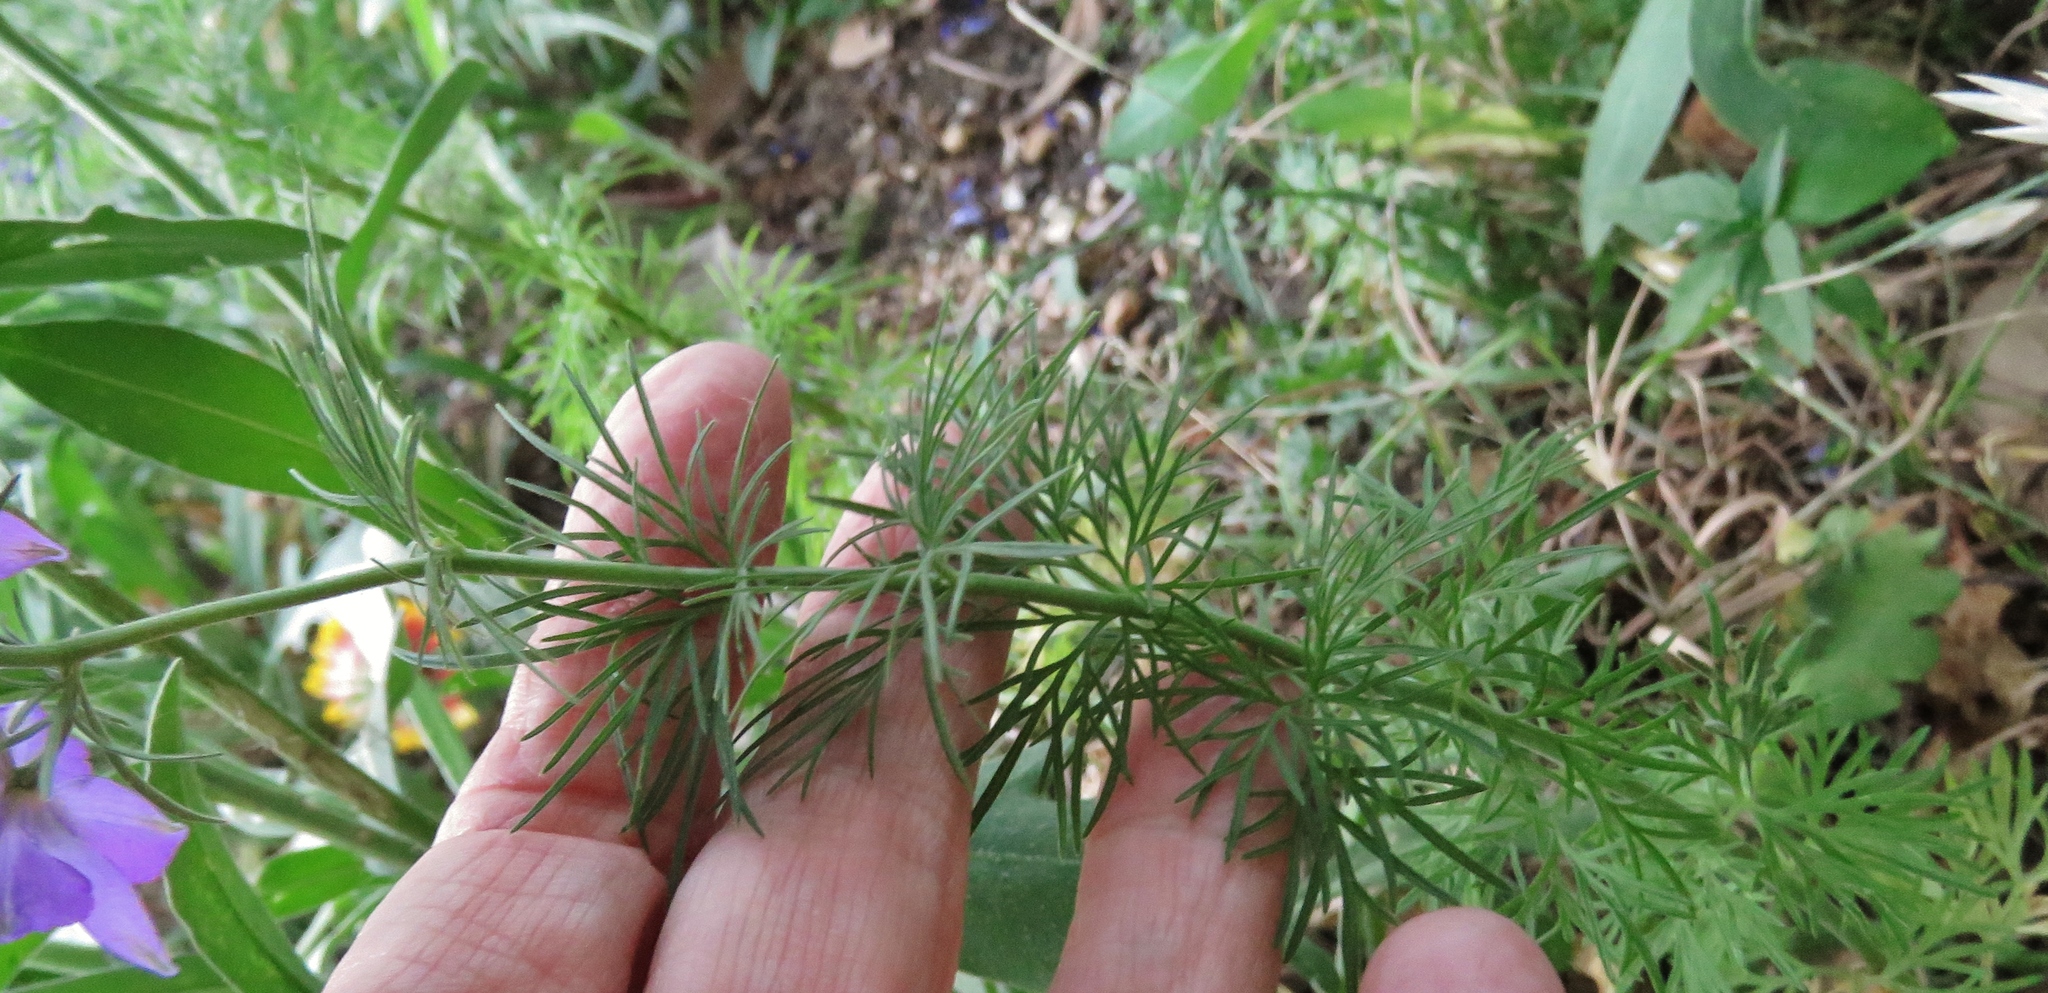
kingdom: Plantae
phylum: Tracheophyta
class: Magnoliopsida
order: Ranunculales
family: Ranunculaceae
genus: Delphinium
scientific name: Delphinium ajacis
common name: Doubtful knight's-spur
